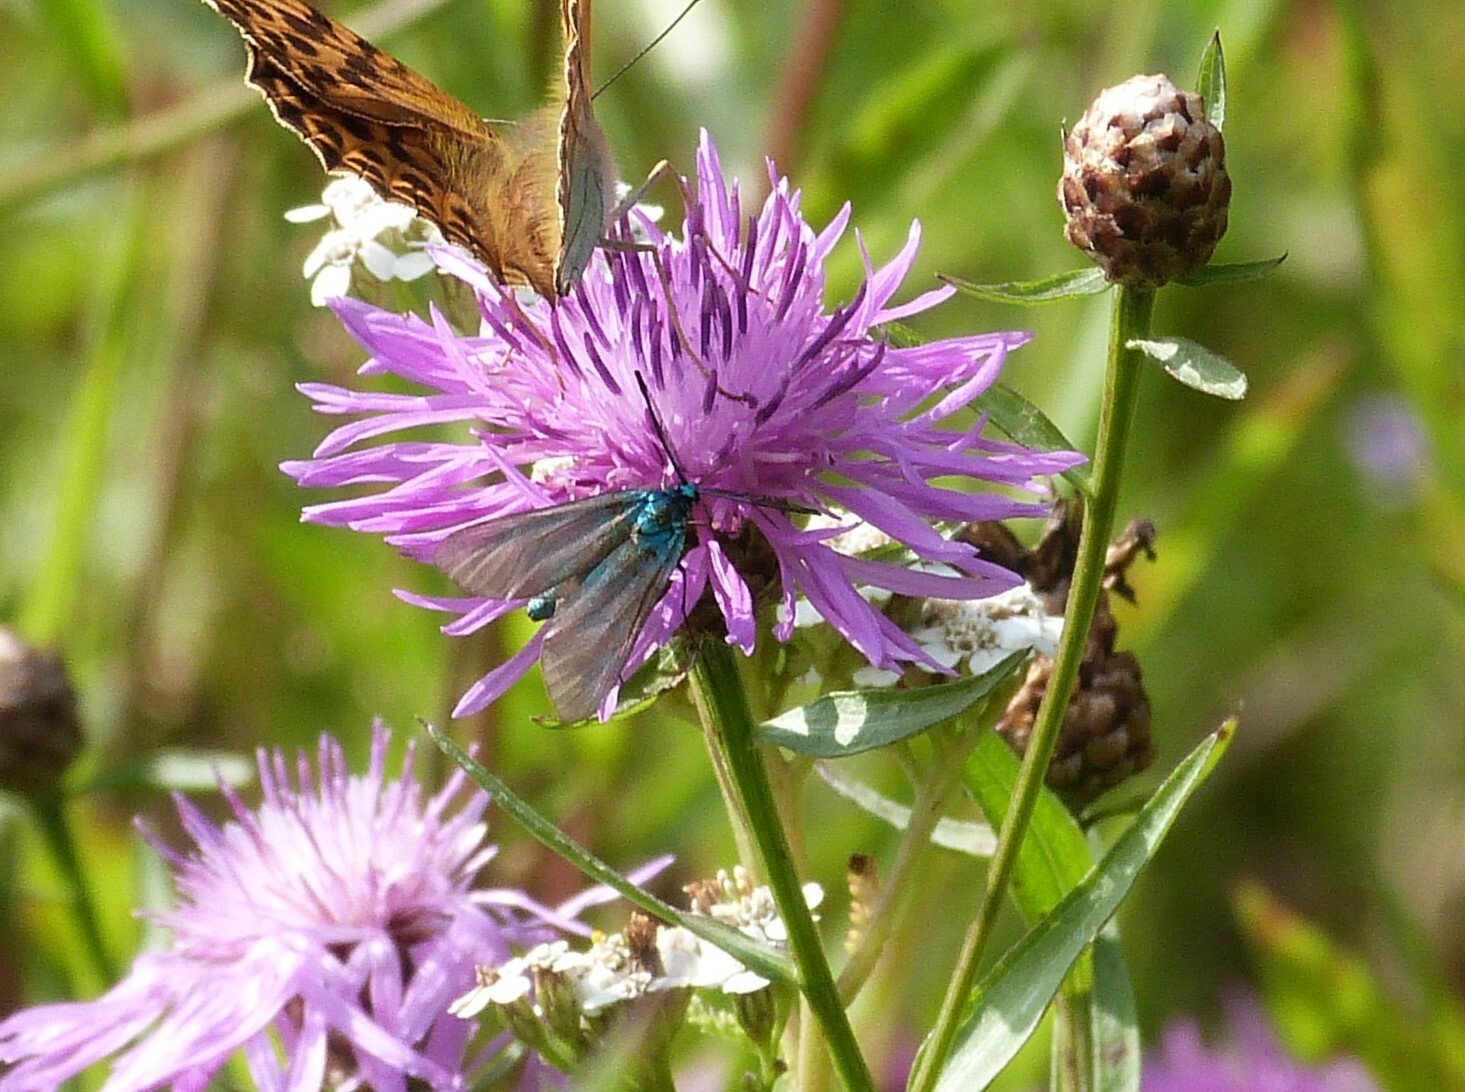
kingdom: Animalia
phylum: Arthropoda
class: Insecta
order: Lepidoptera
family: Zygaenidae
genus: Adscita
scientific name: Adscita statices
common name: Forester
